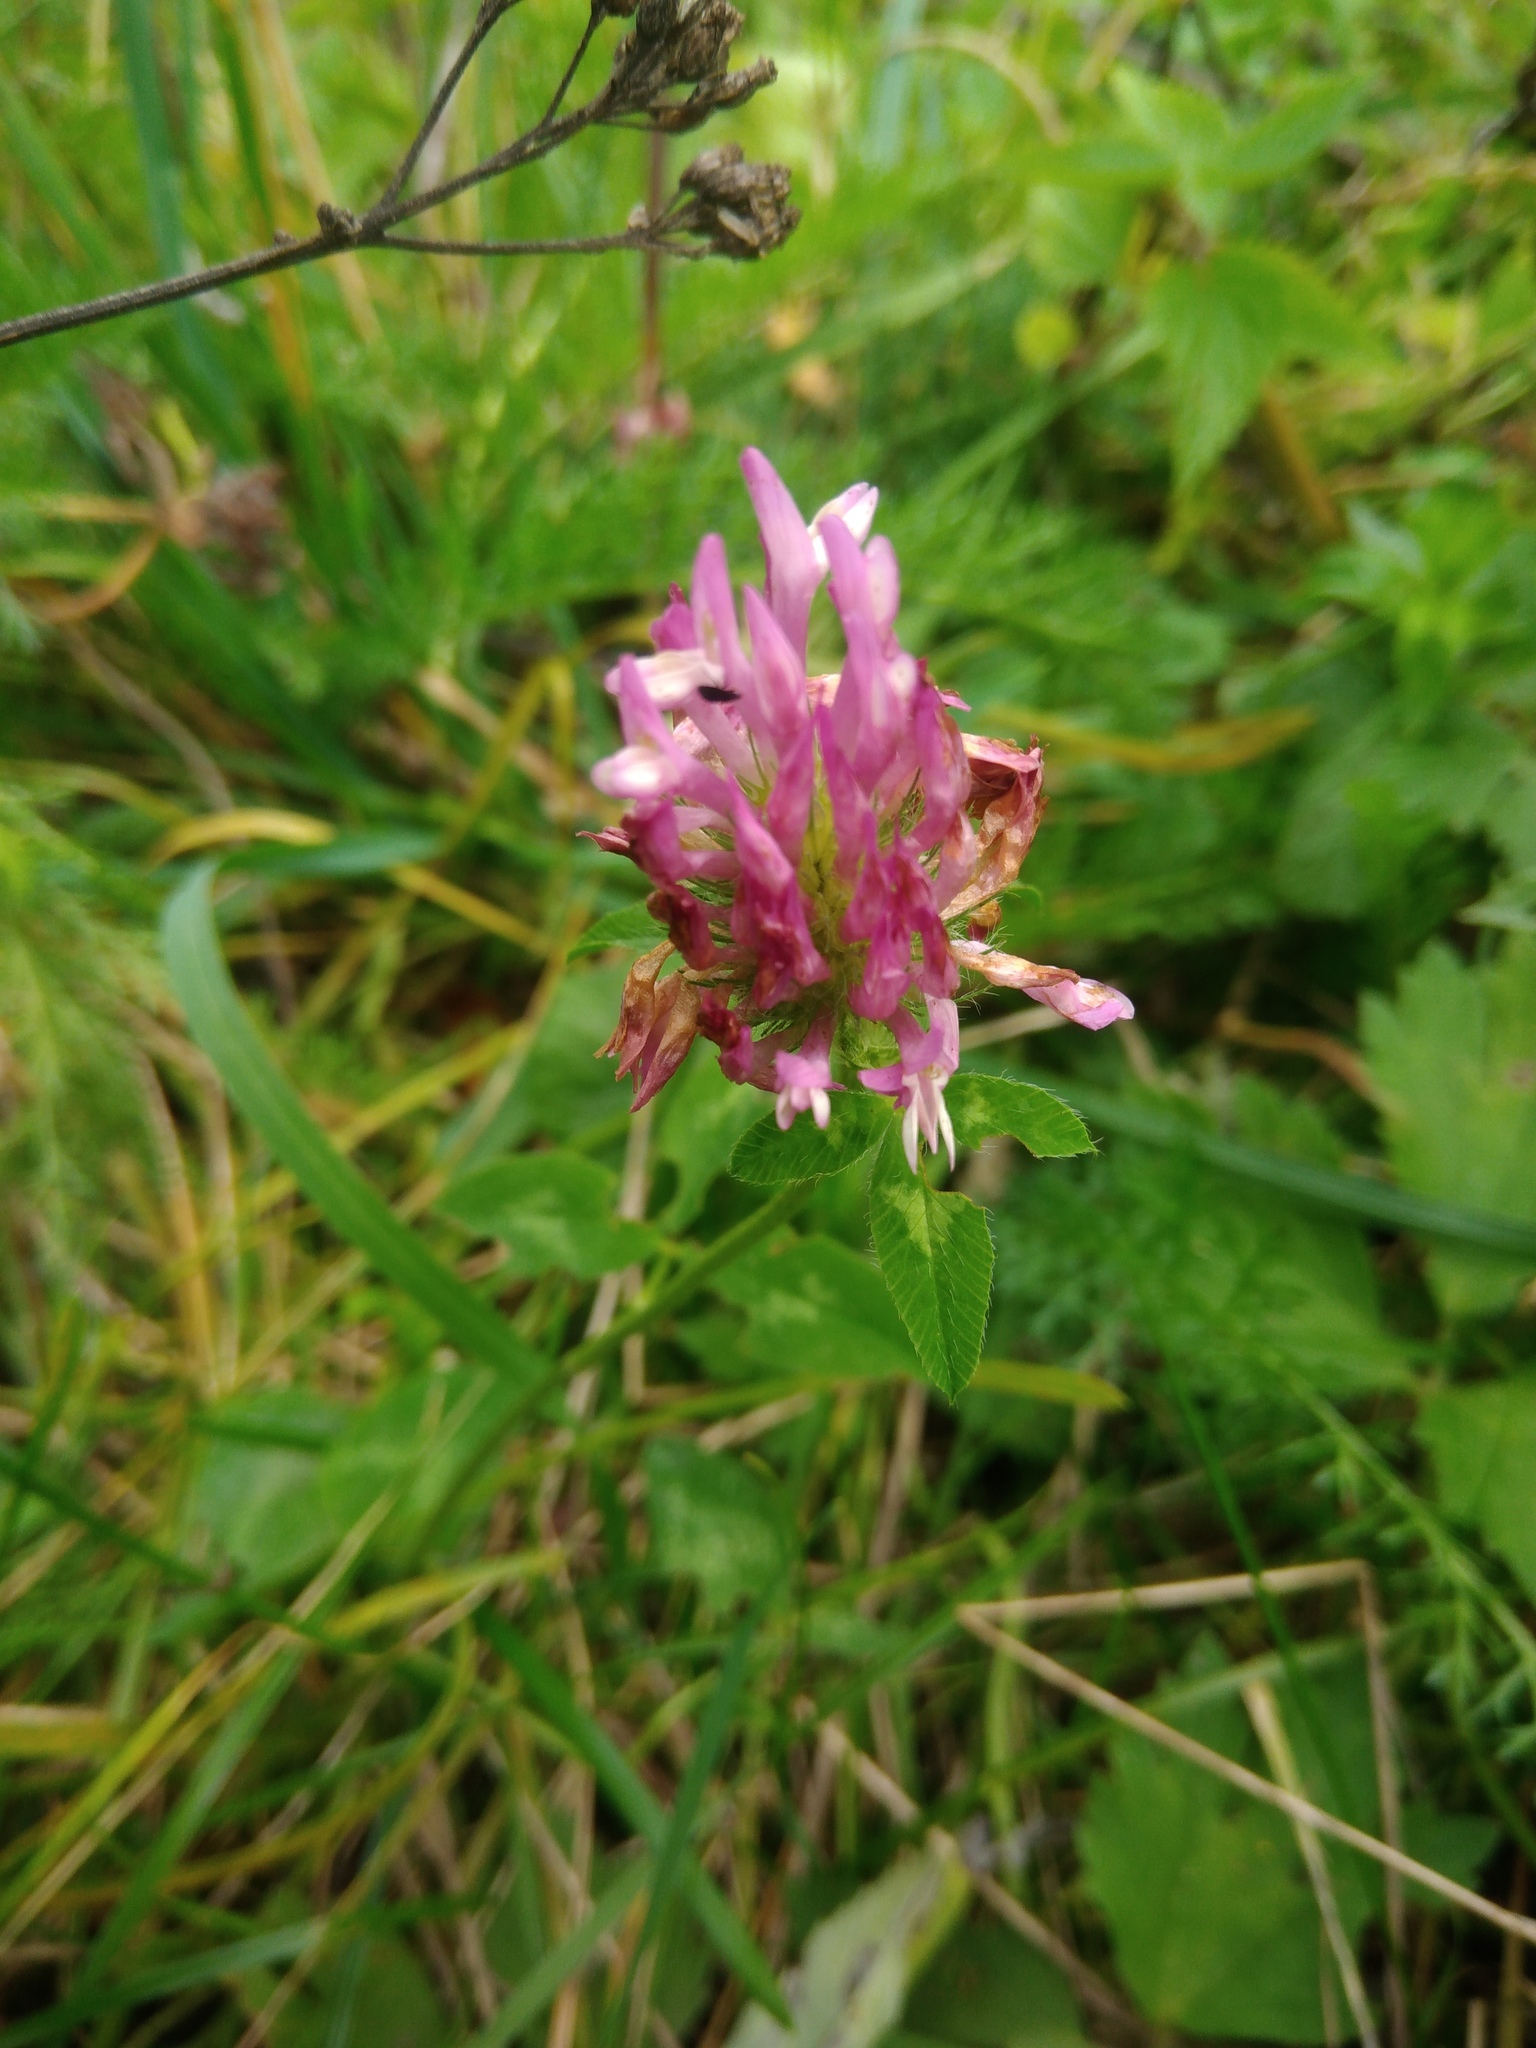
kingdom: Plantae
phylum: Tracheophyta
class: Magnoliopsida
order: Fabales
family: Fabaceae
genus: Trifolium
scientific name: Trifolium pratense
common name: Red clover
